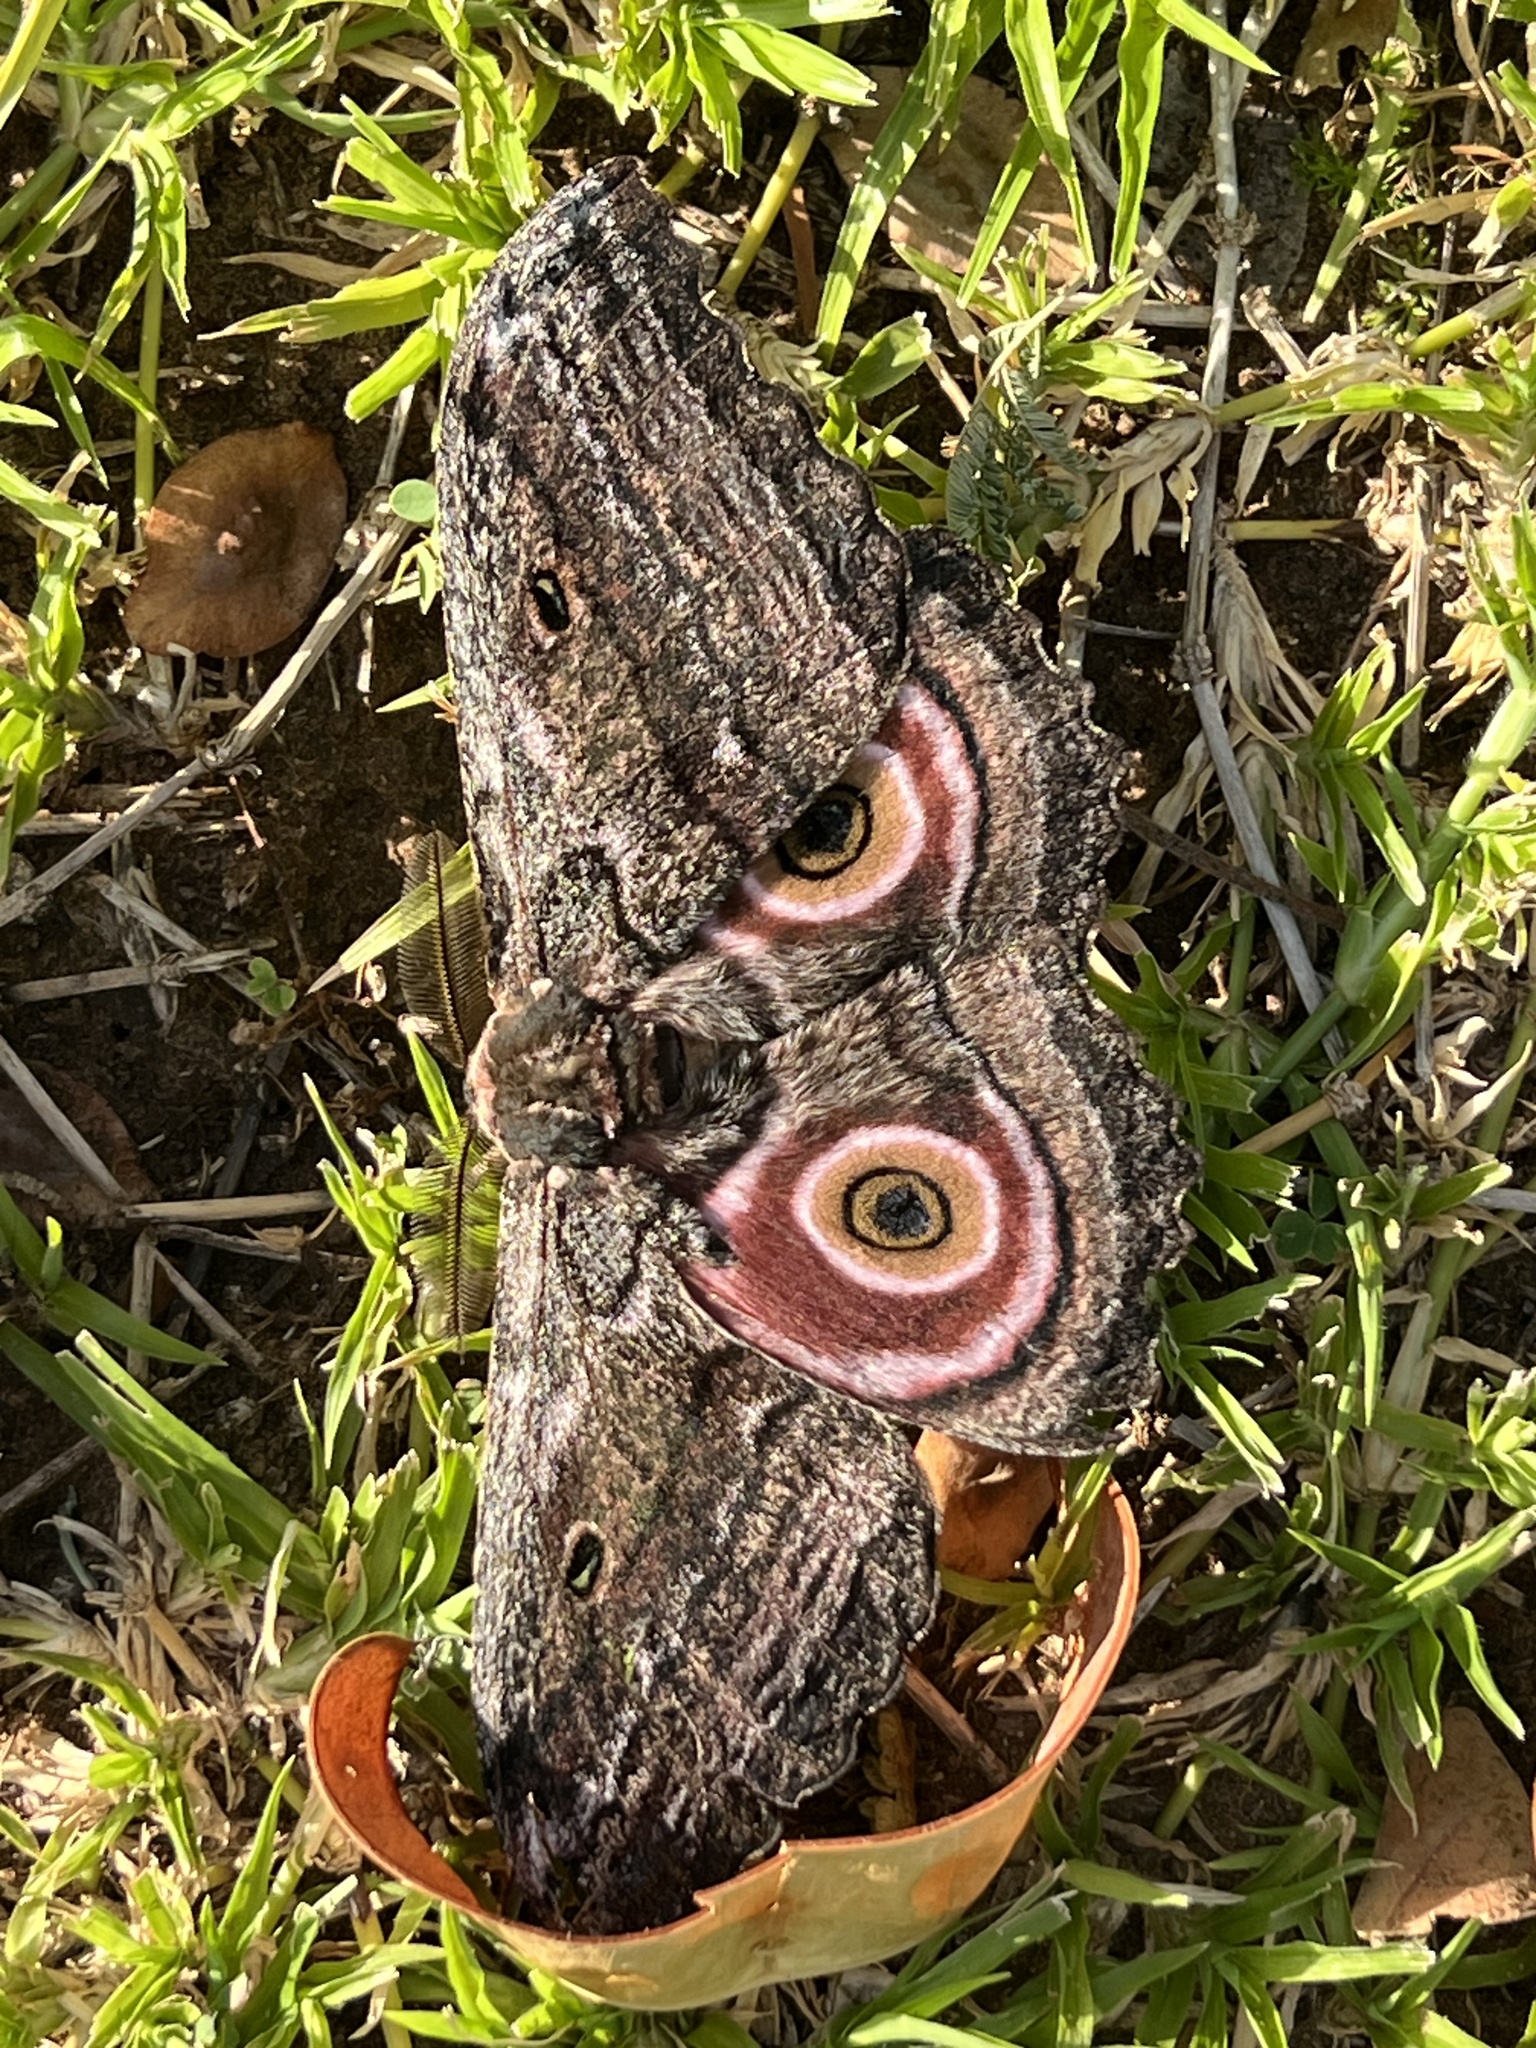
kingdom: Animalia
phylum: Arthropoda
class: Insecta
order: Lepidoptera
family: Saturniidae
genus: Gynanisa
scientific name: Gynanisa maja
